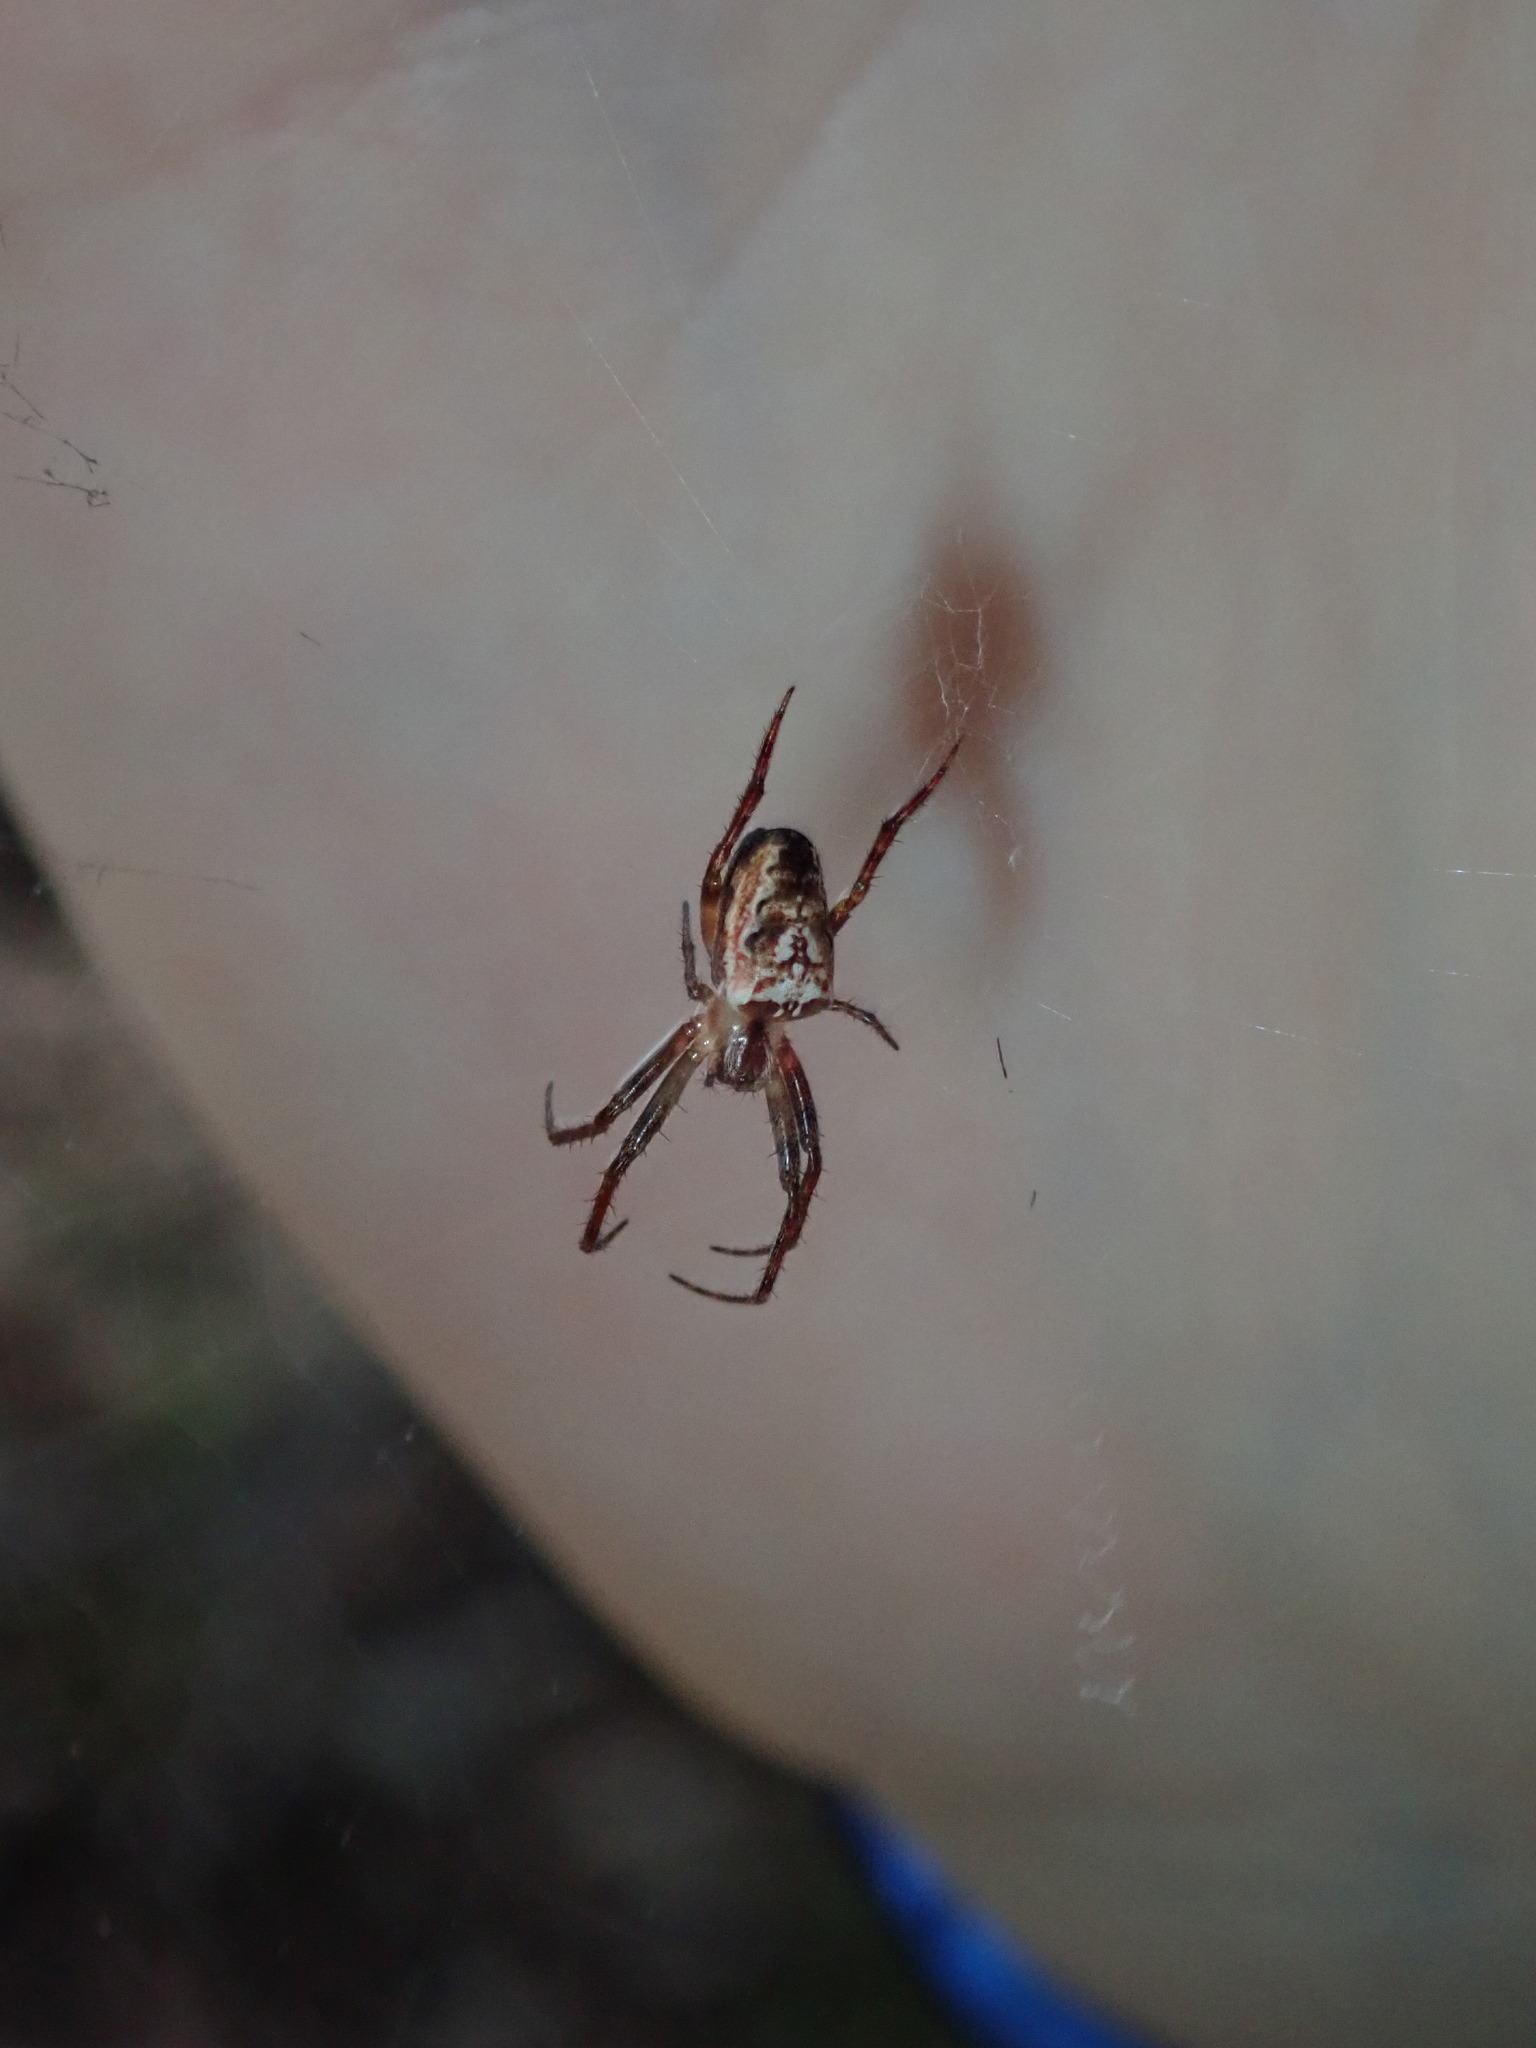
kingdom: Animalia
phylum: Arthropoda
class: Arachnida
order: Araneae
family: Araneidae
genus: Plebs
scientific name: Plebs eburnus
